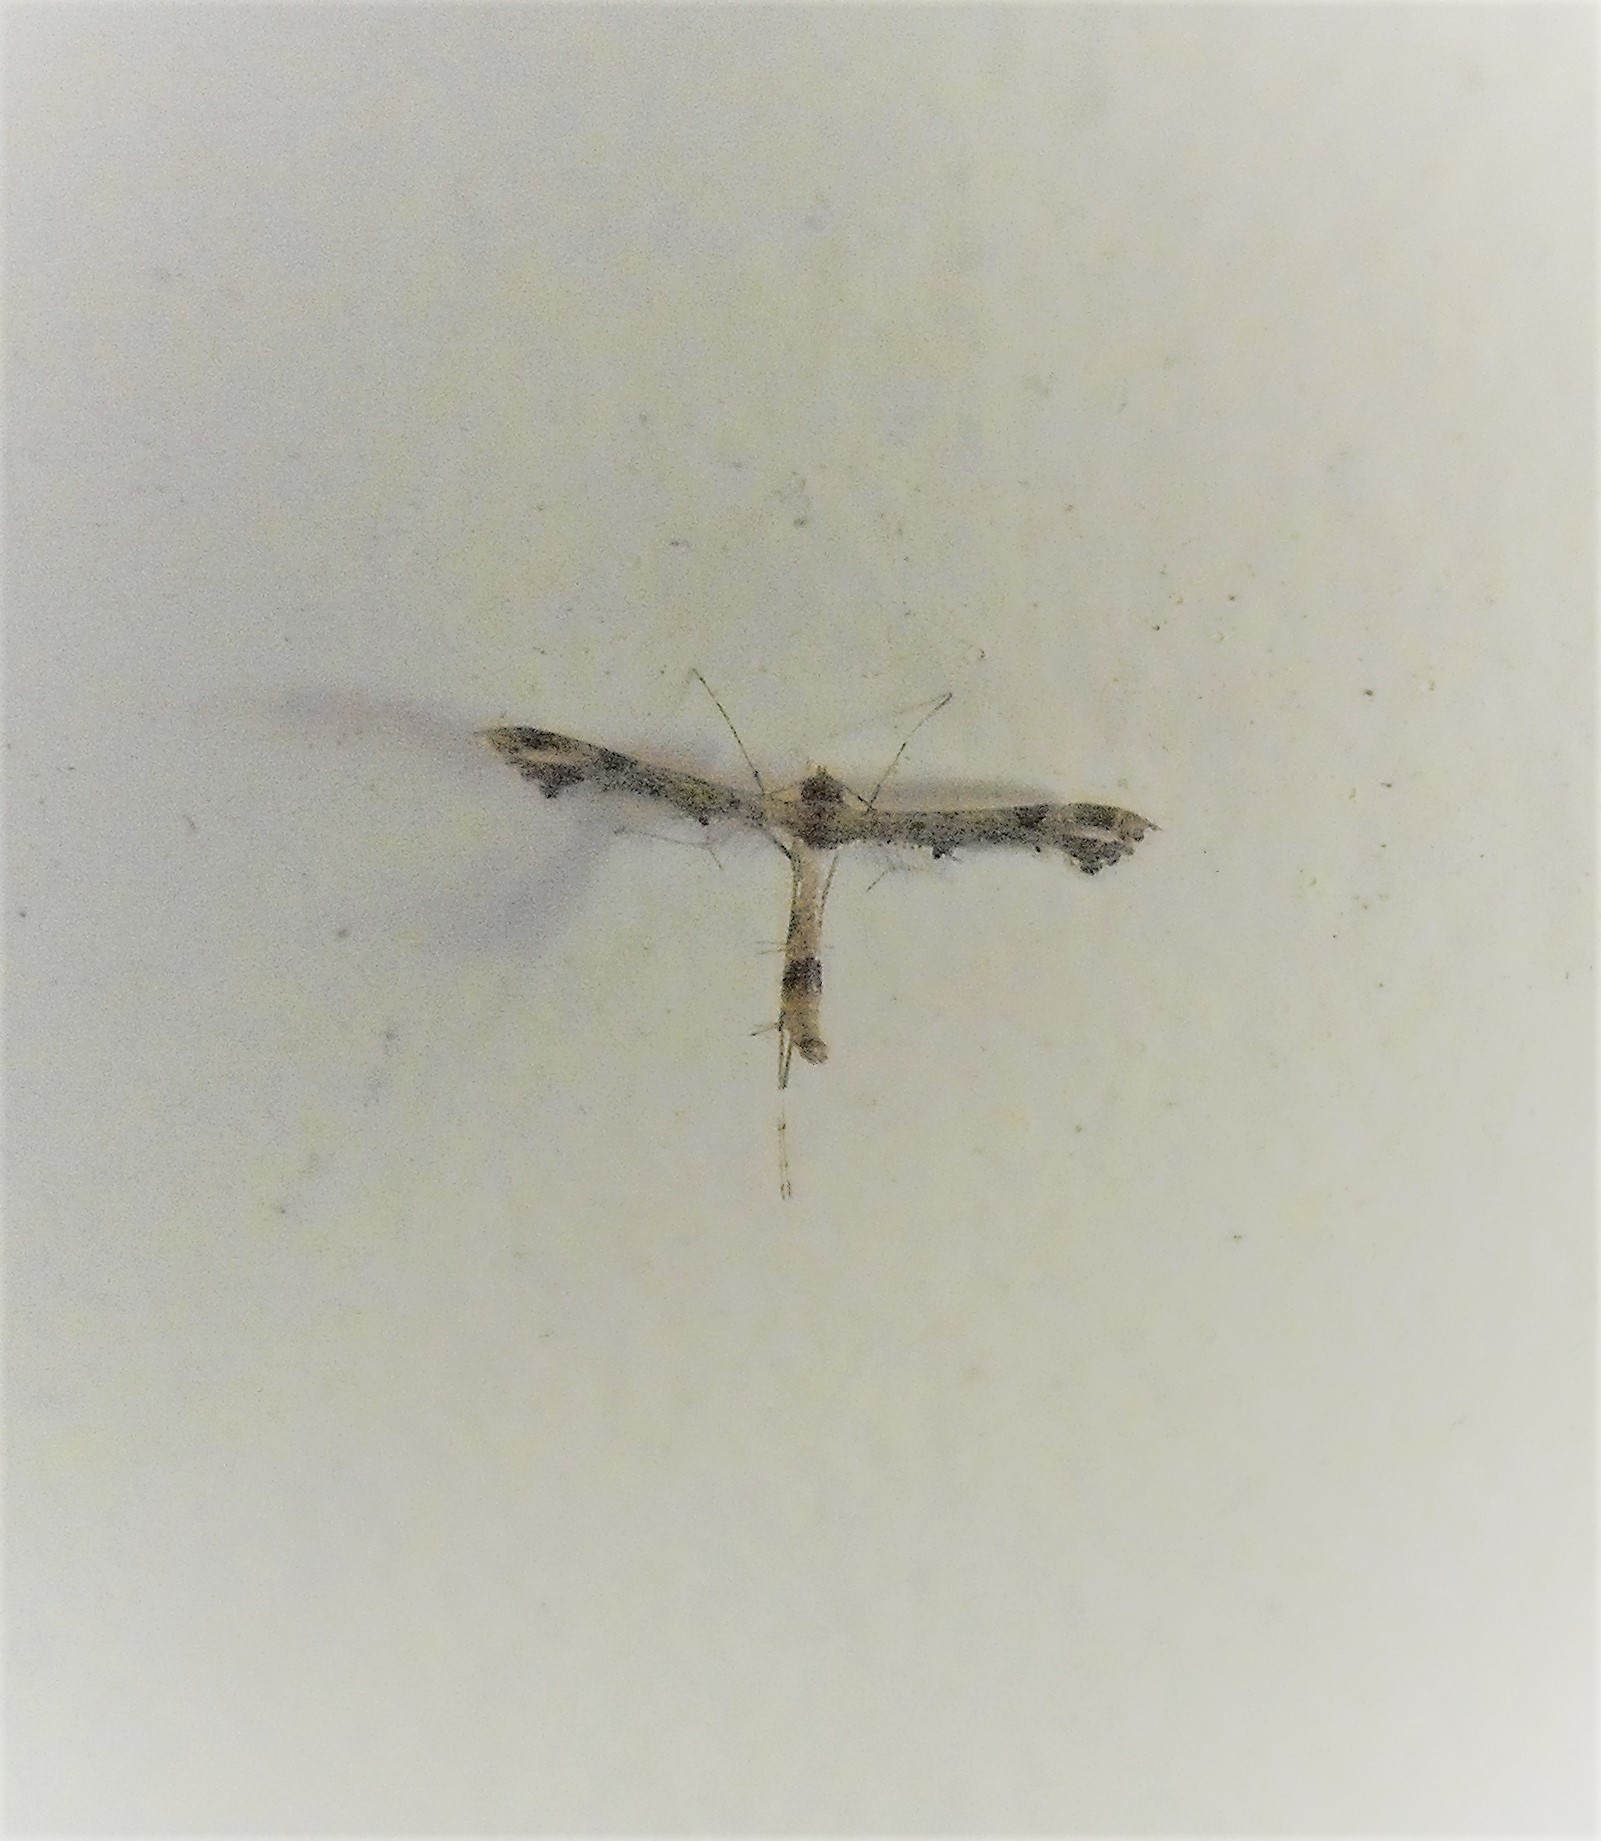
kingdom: Animalia
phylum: Arthropoda
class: Insecta
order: Lepidoptera
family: Pterophoridae
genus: Lantanophaga
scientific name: Lantanophaga pusillidactylus
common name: Moth
